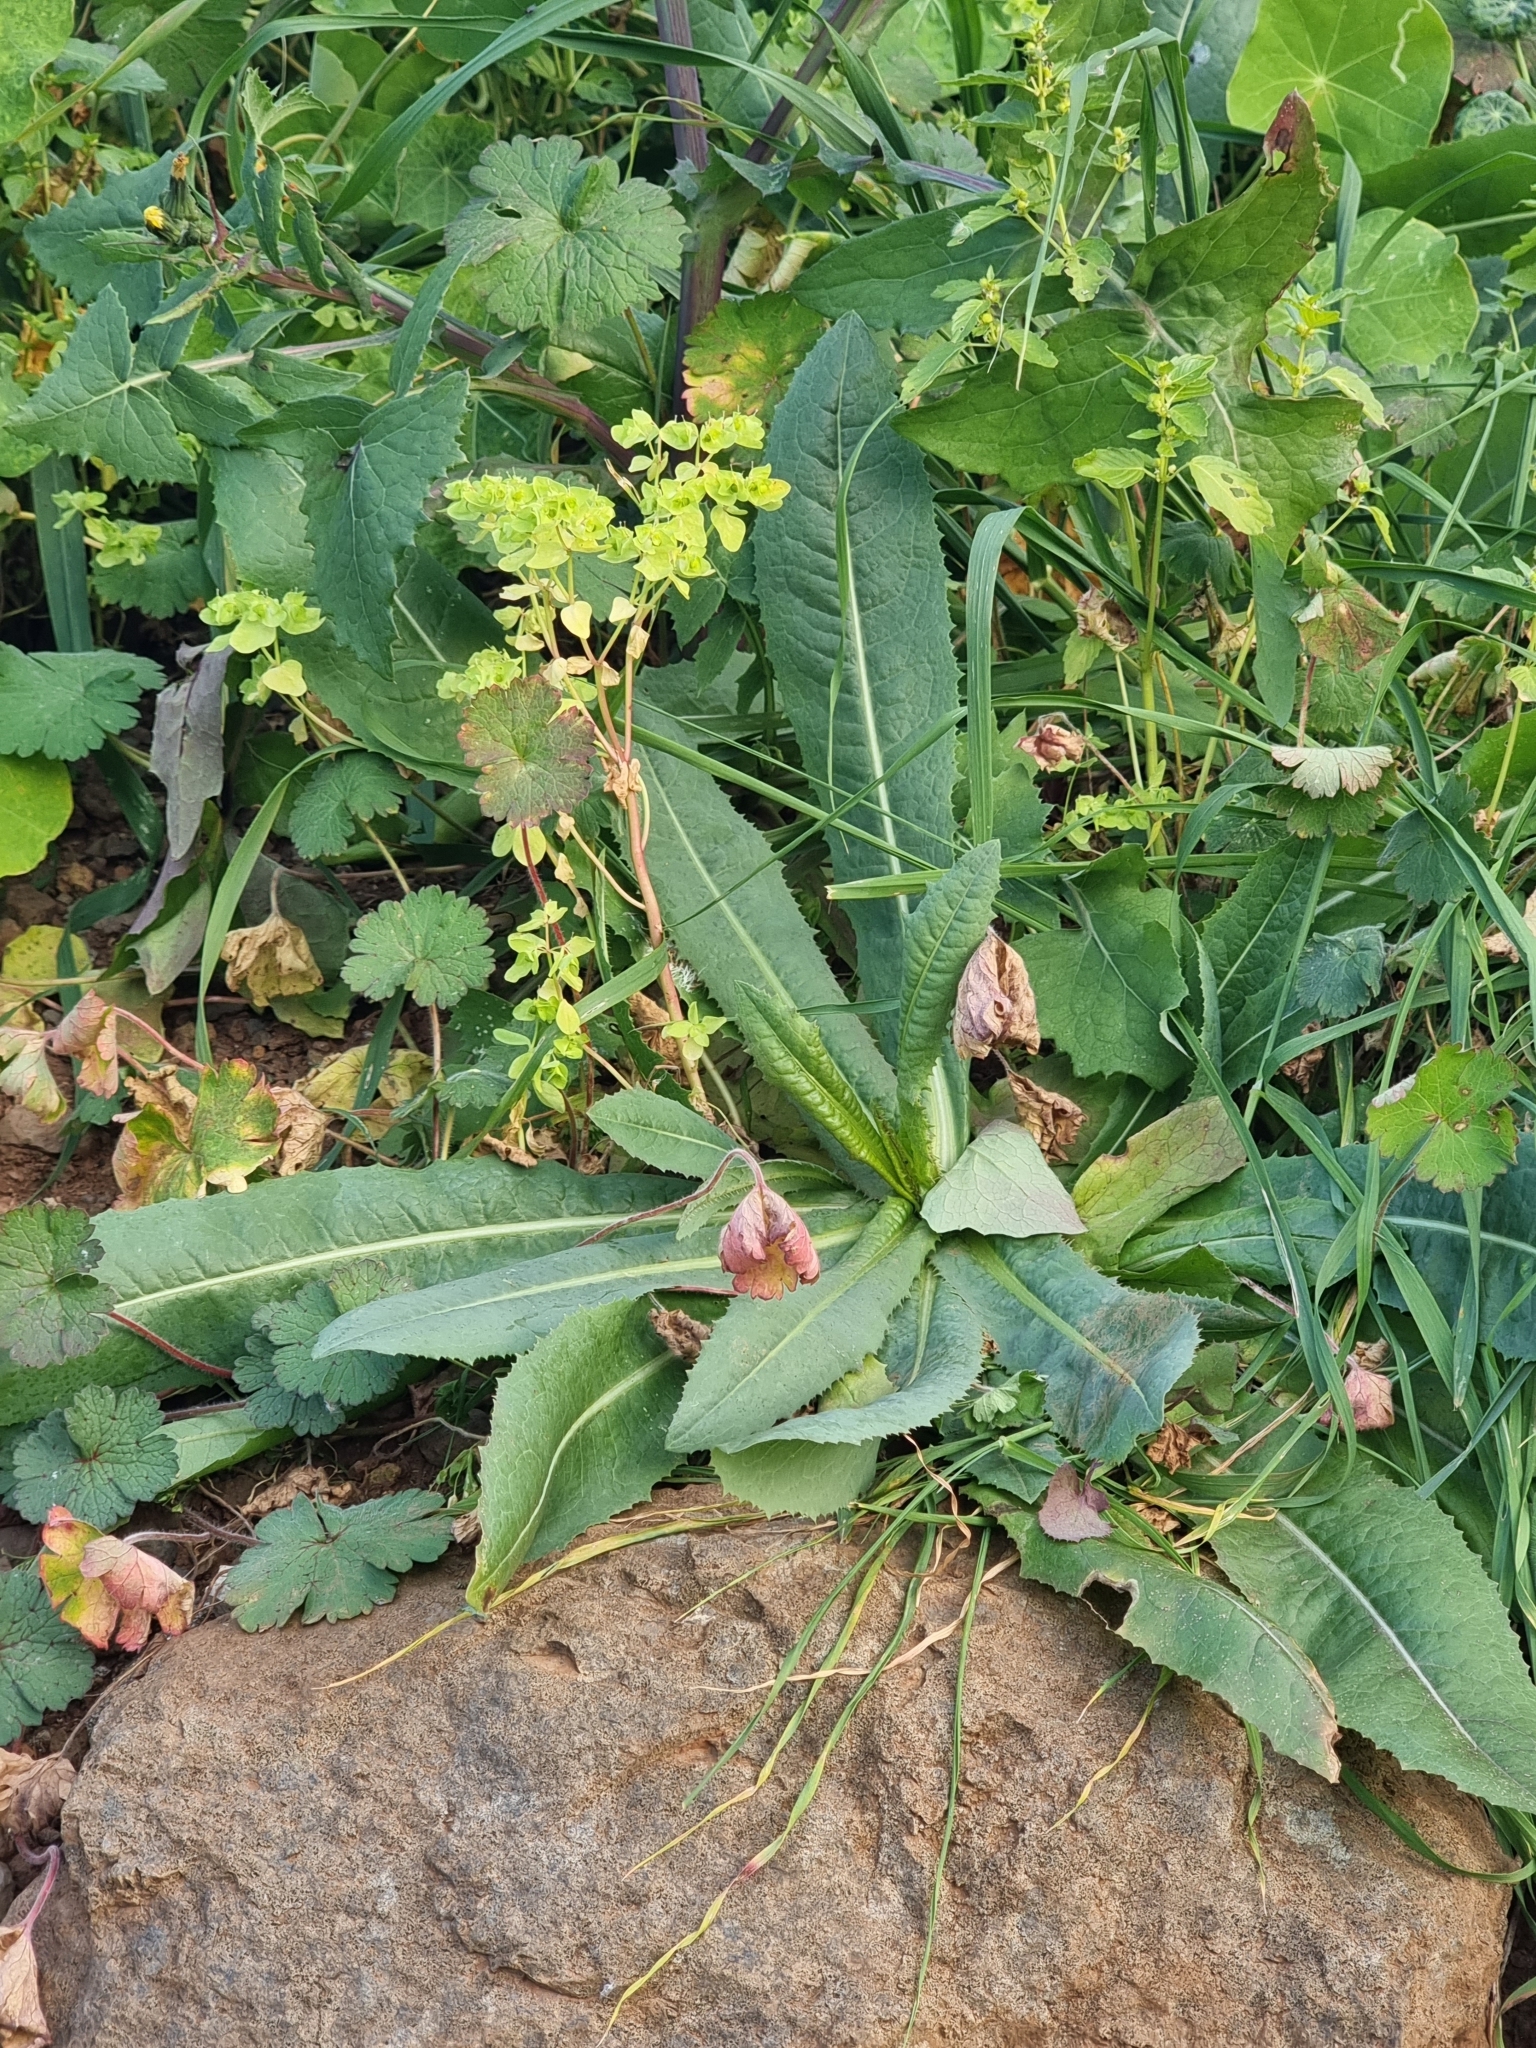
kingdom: Plantae
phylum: Tracheophyta
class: Magnoliopsida
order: Asterales
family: Asteraceae
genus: Lactuca
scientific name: Lactuca serriola
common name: Prickly lettuce
